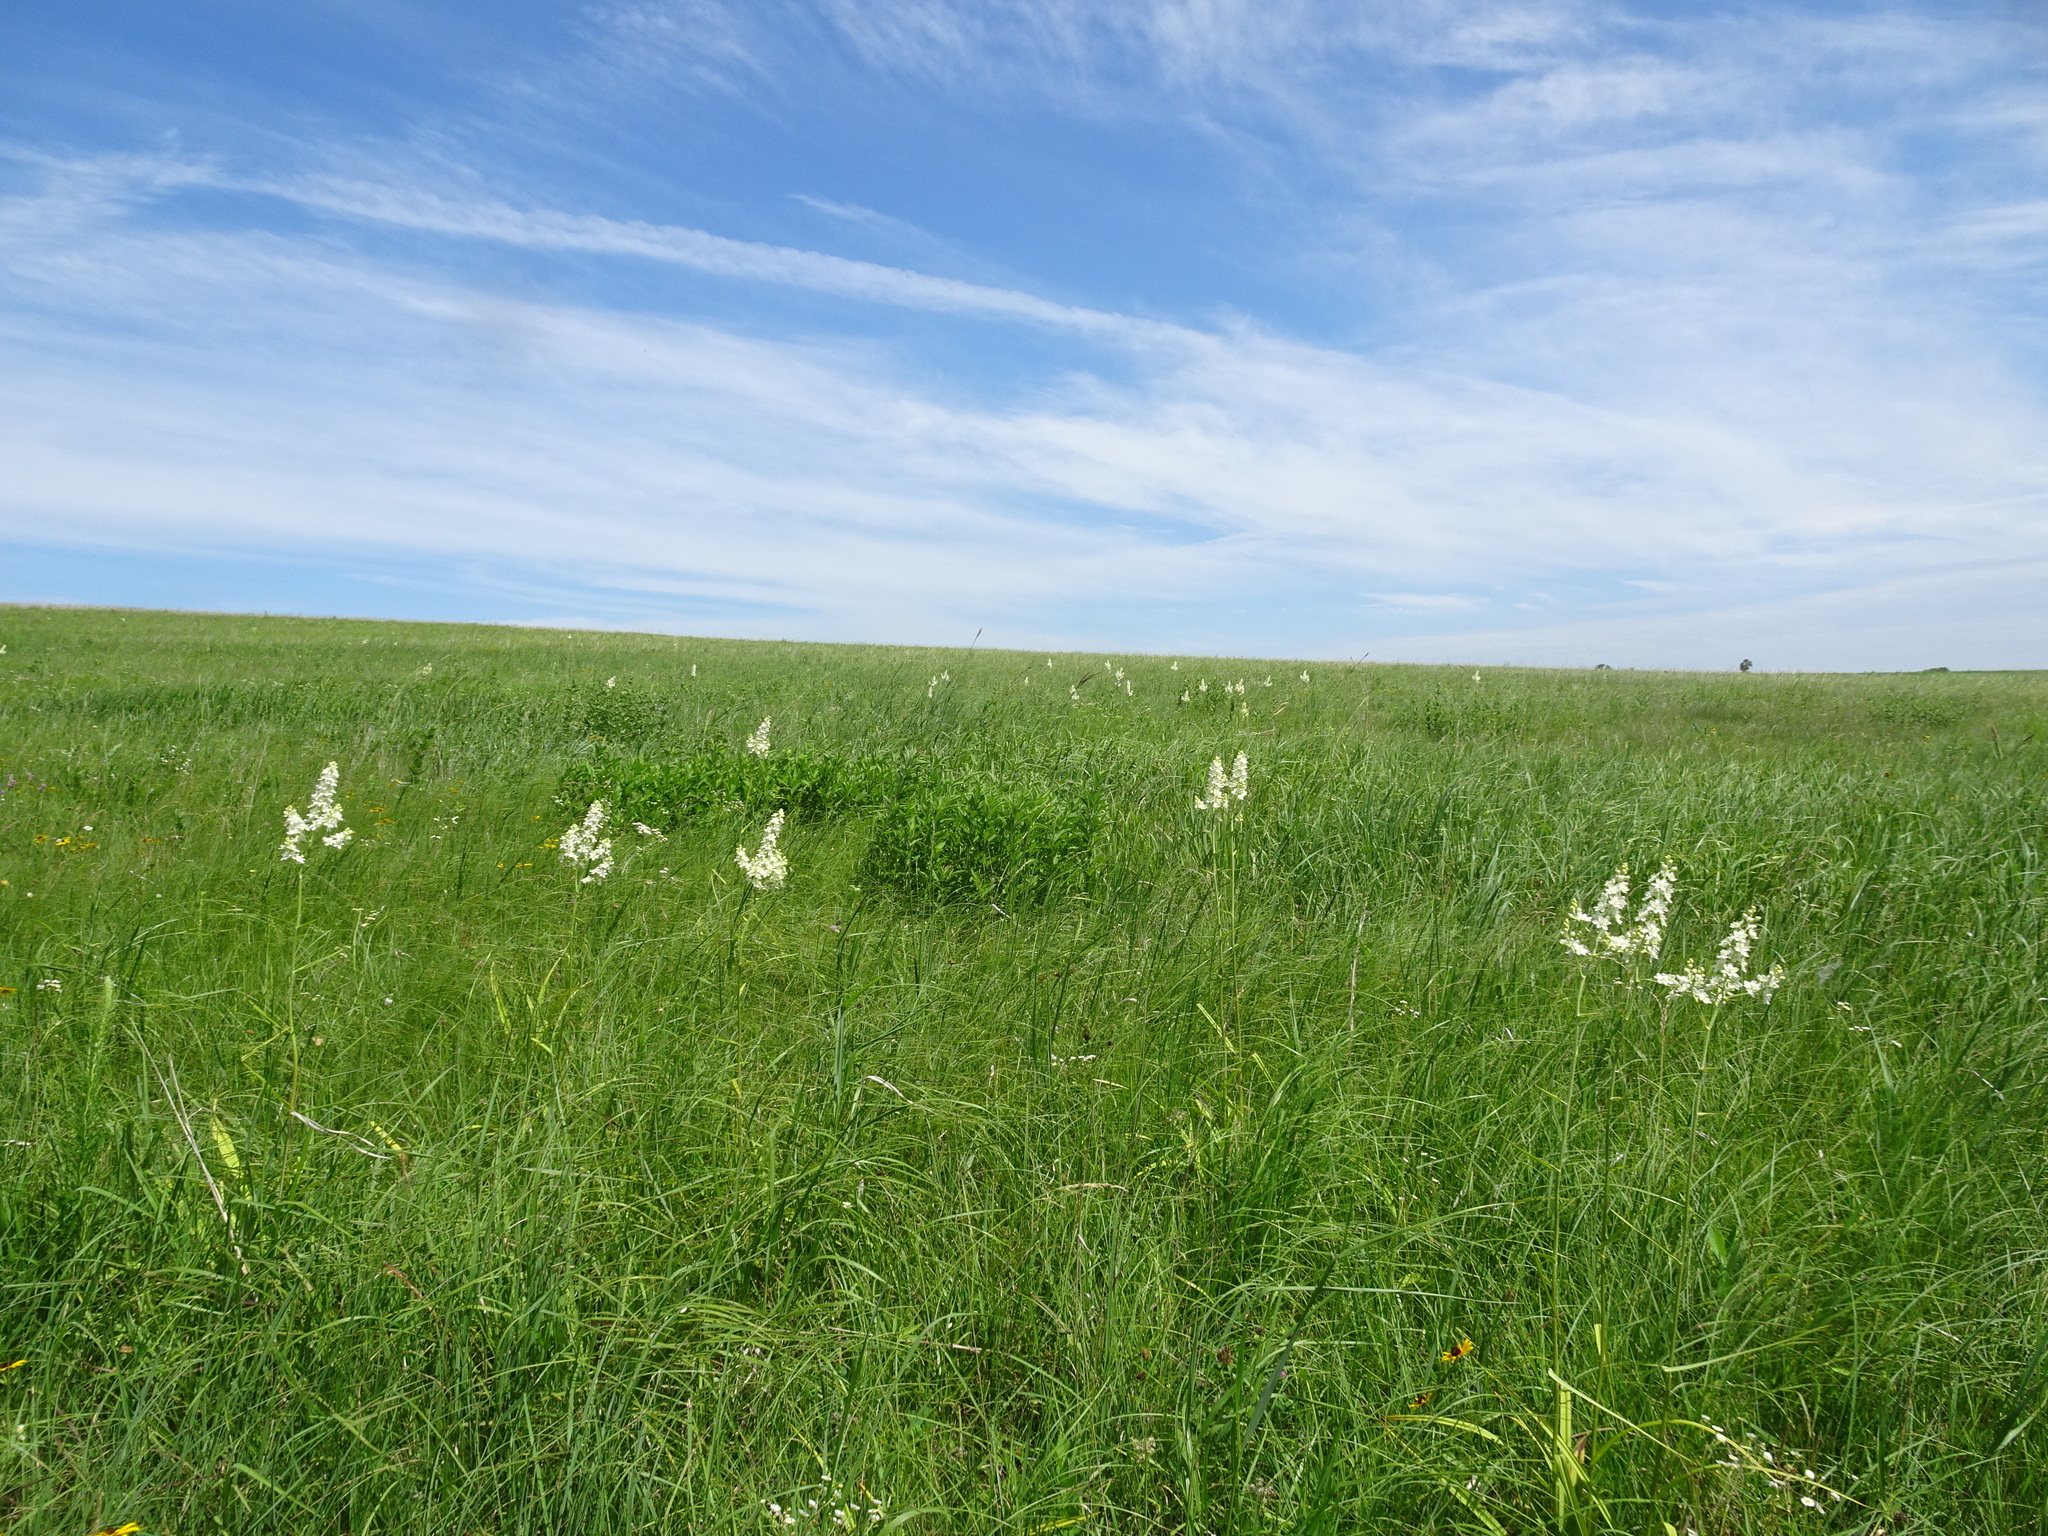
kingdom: Plantae
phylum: Tracheophyta
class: Liliopsida
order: Liliales
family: Melanthiaceae
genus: Melanthium
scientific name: Melanthium virginicum
